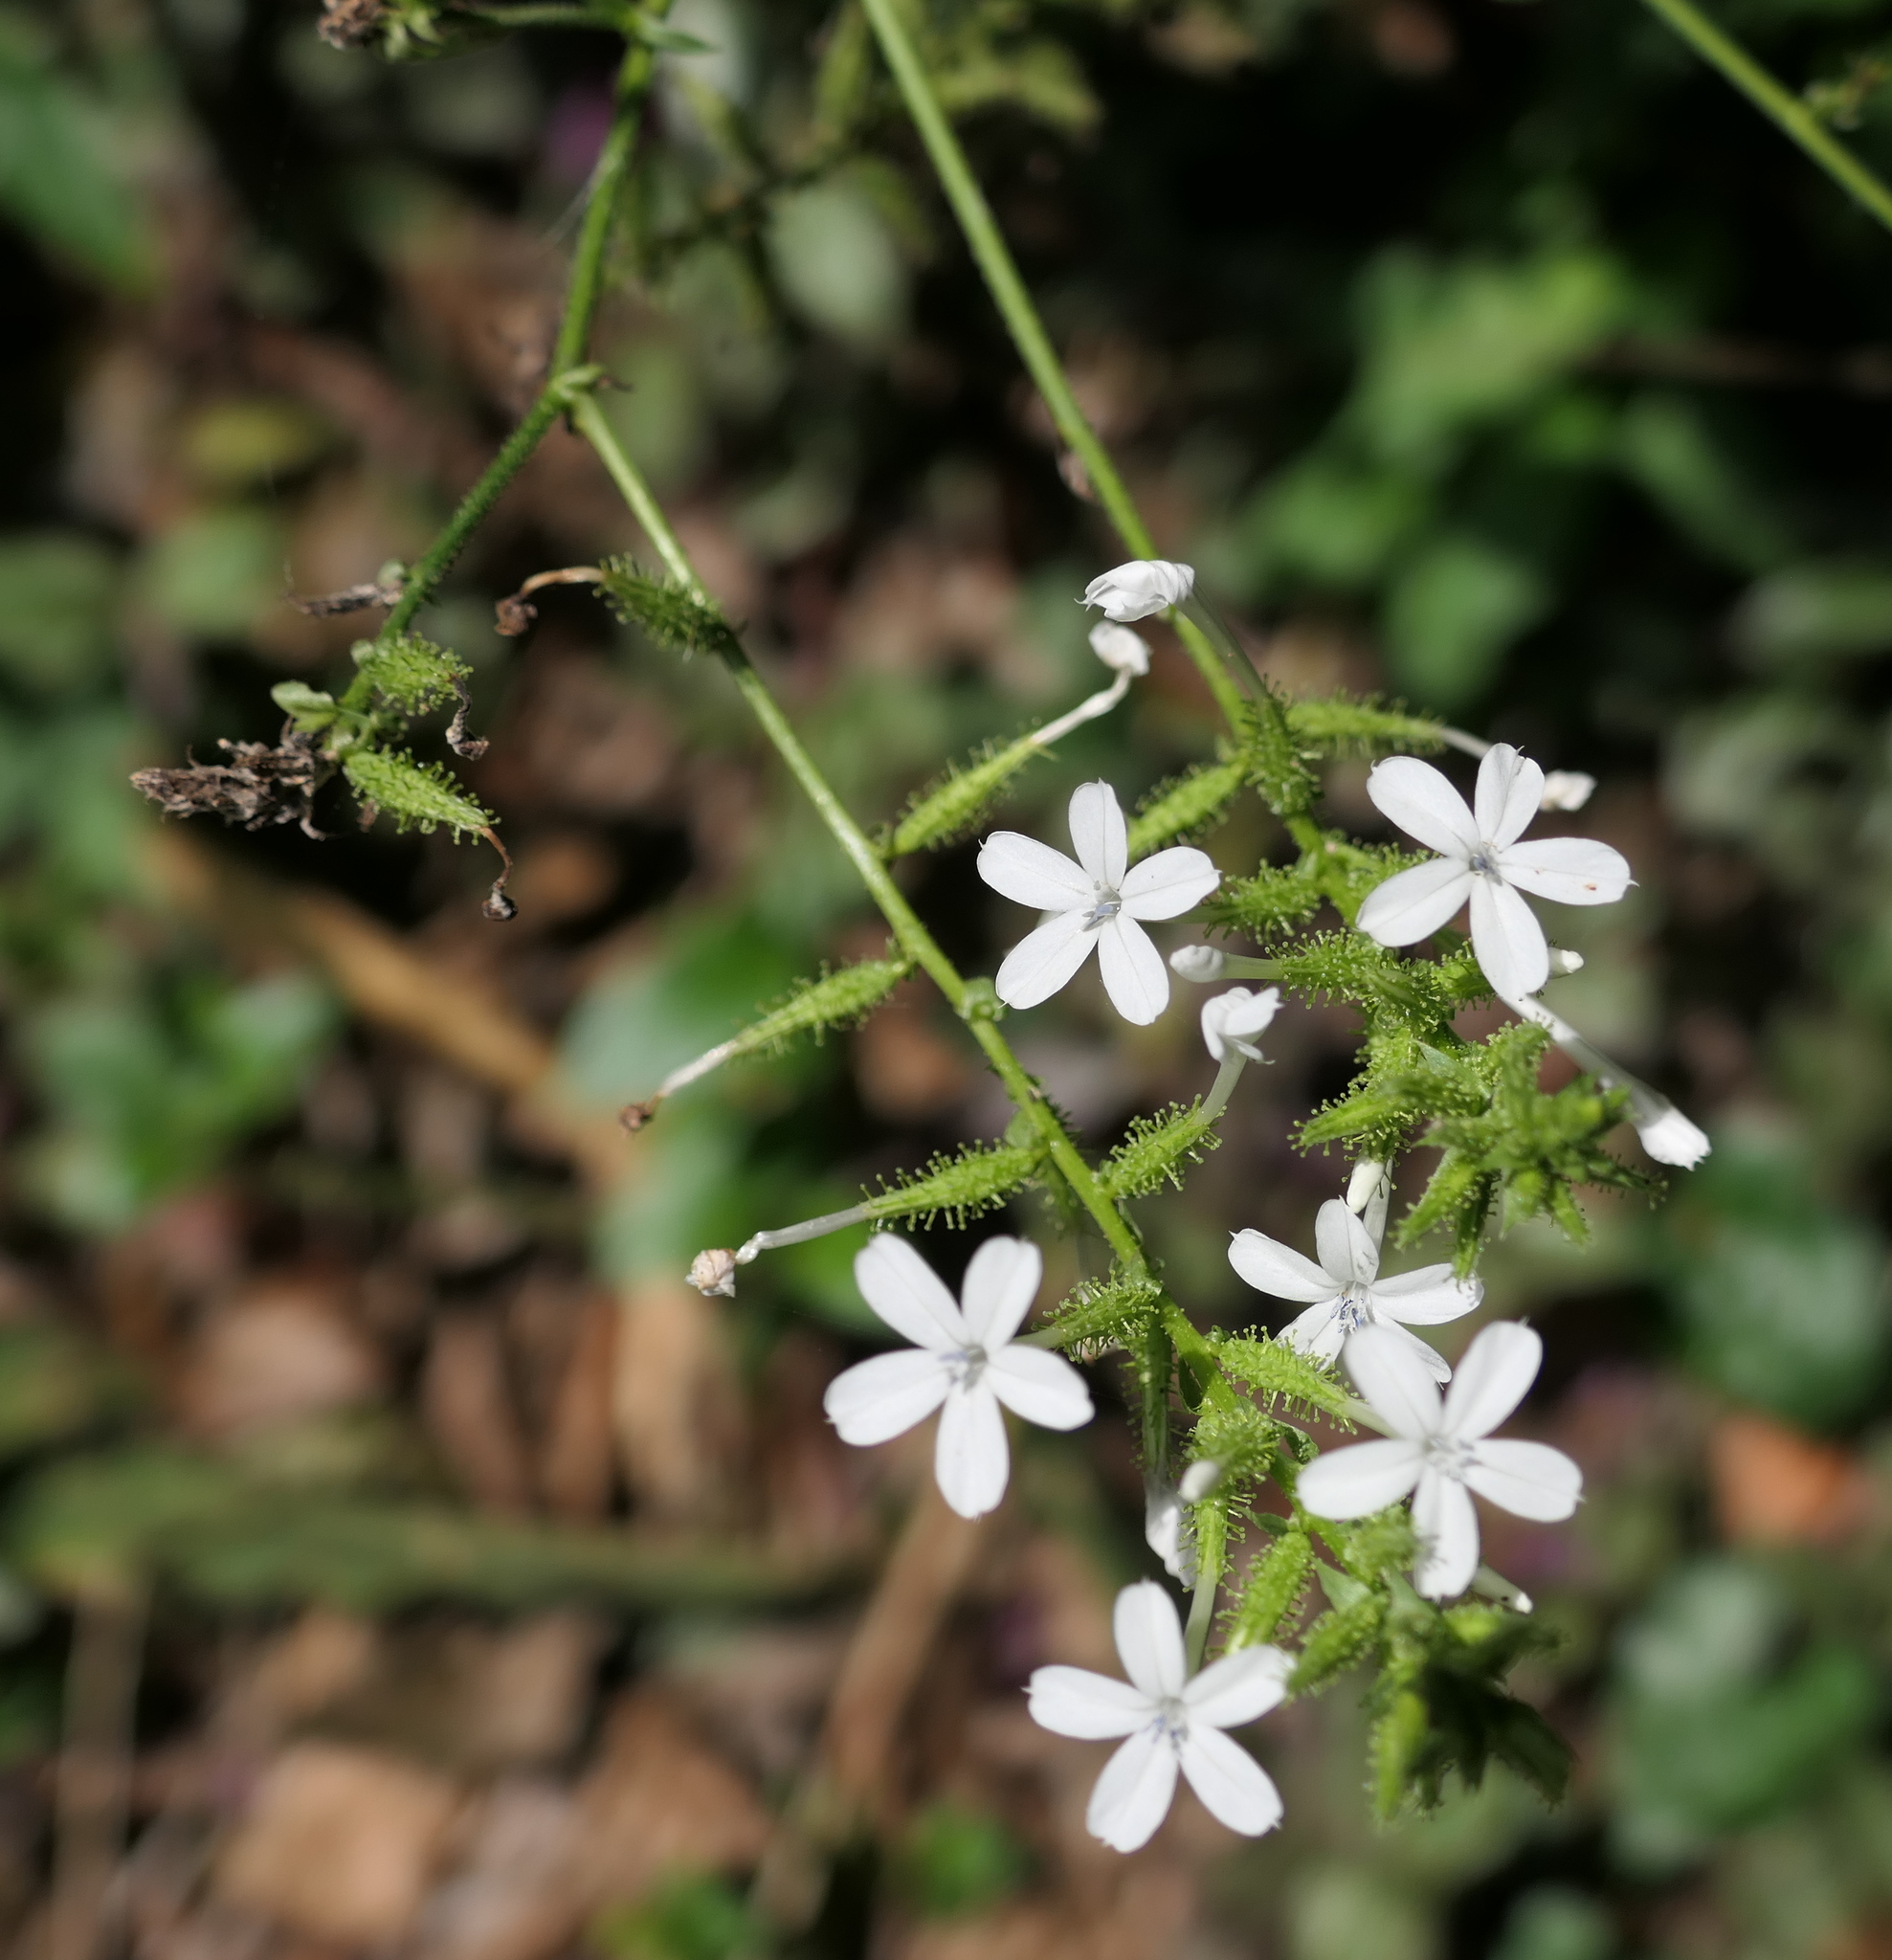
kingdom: Plantae
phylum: Tracheophyta
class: Magnoliopsida
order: Caryophyllales
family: Plumbaginaceae
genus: Plumbago
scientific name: Plumbago zeylanica
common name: Doctorbush
